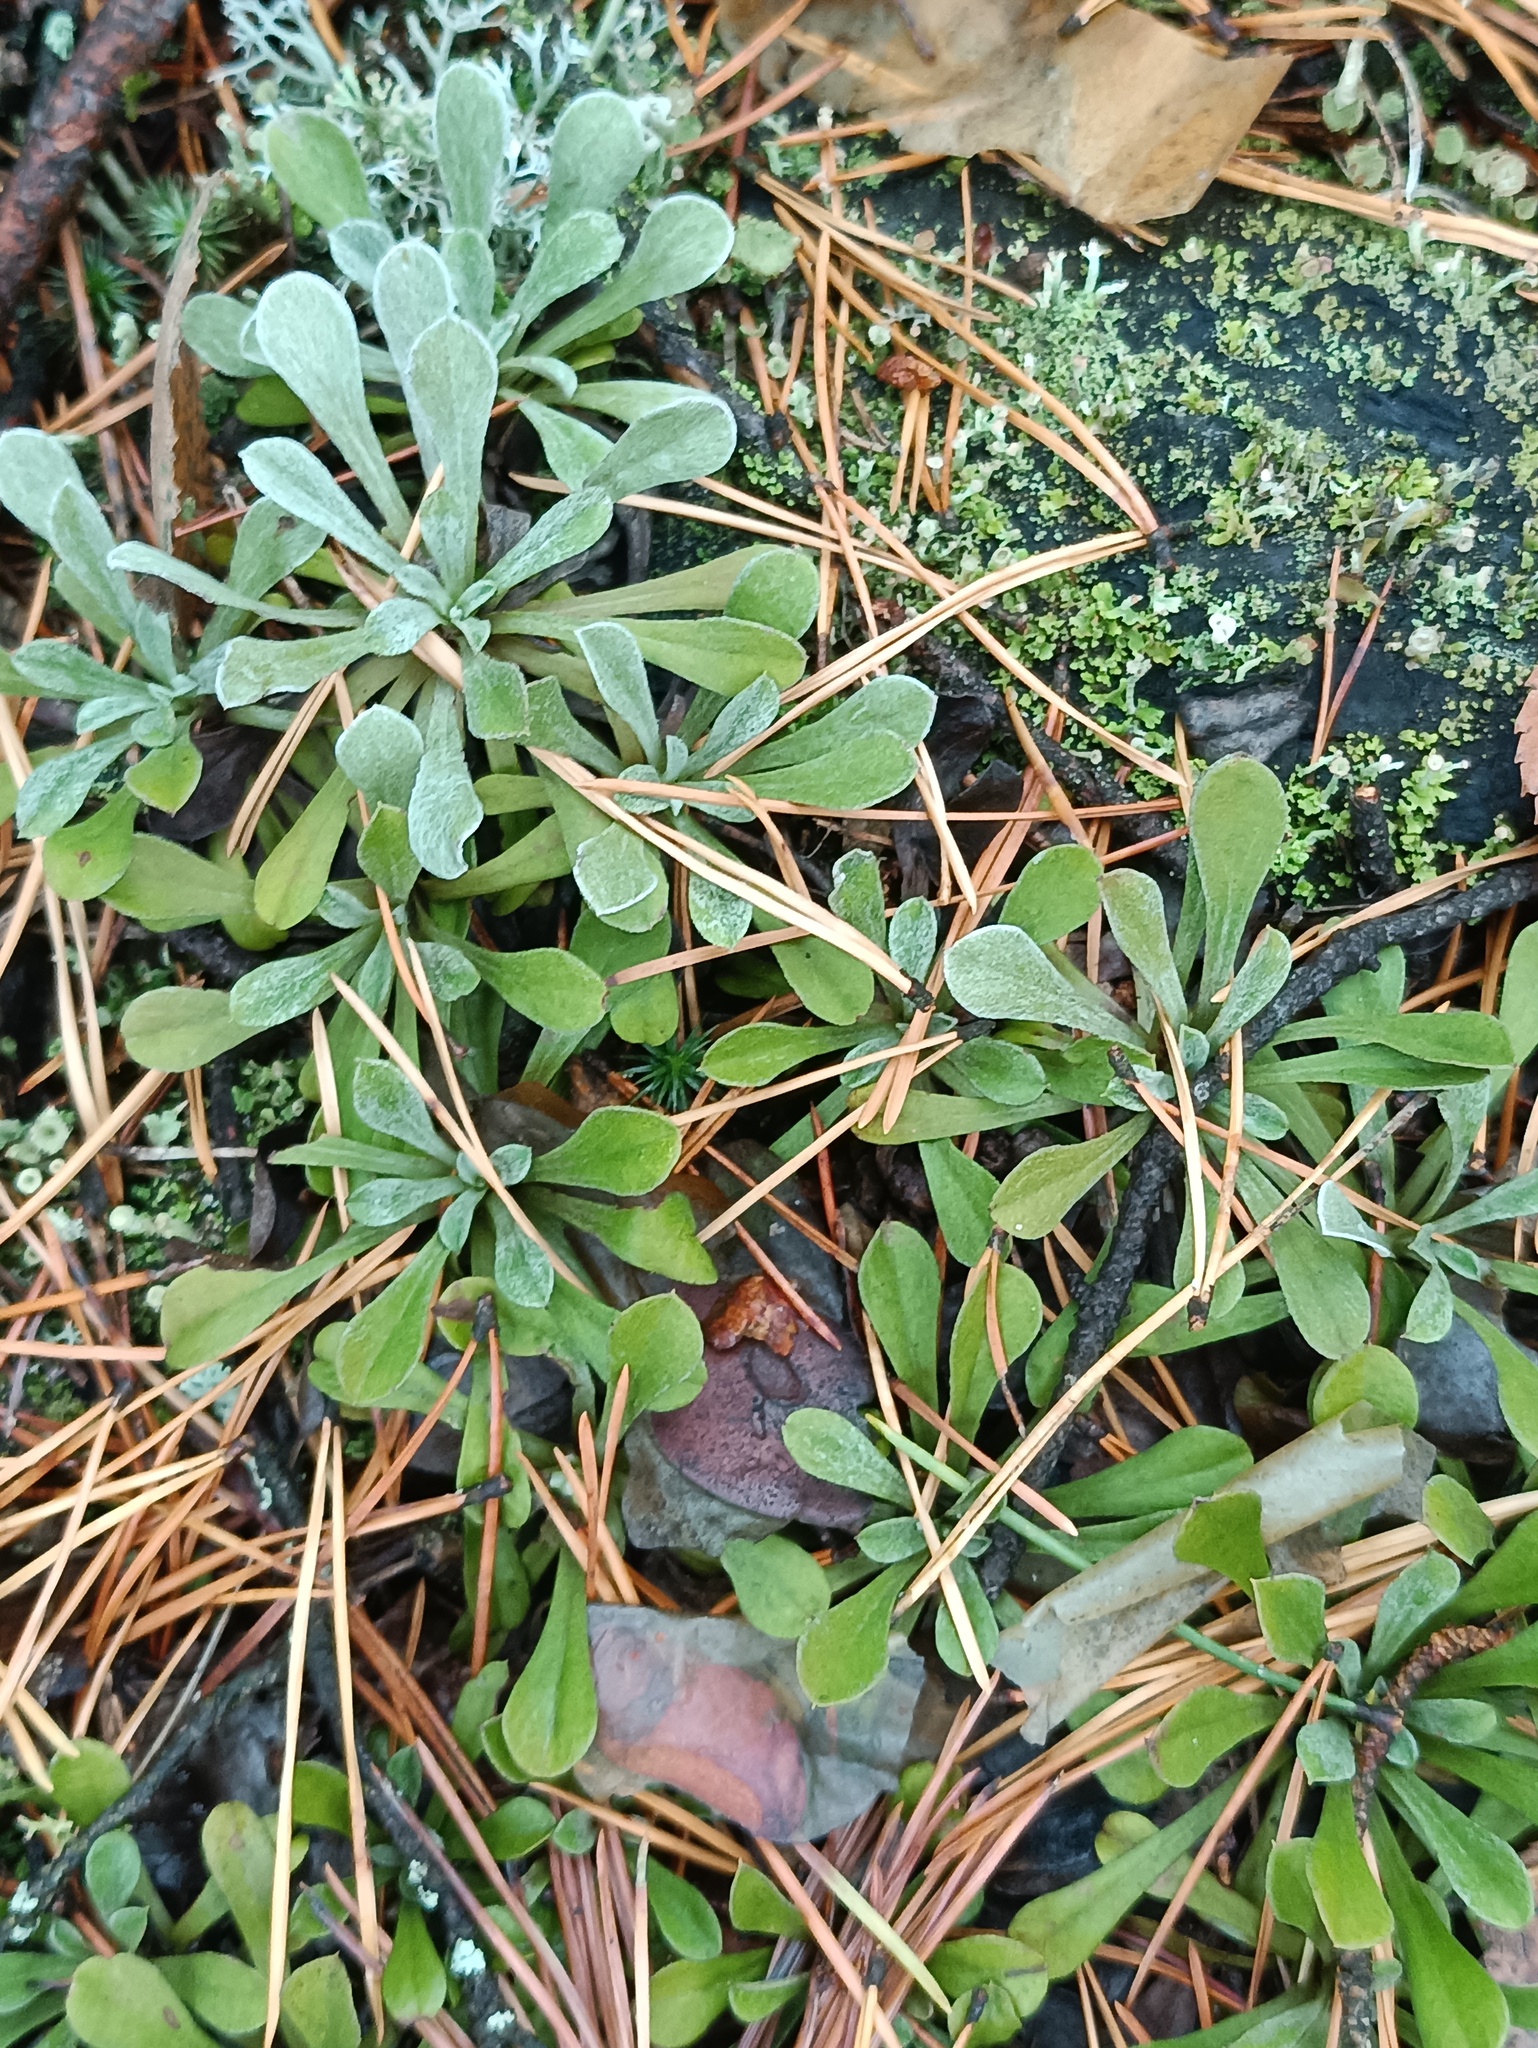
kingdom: Plantae
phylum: Tracheophyta
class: Magnoliopsida
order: Asterales
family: Asteraceae
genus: Antennaria
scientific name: Antennaria dioica
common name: Mountain everlasting
